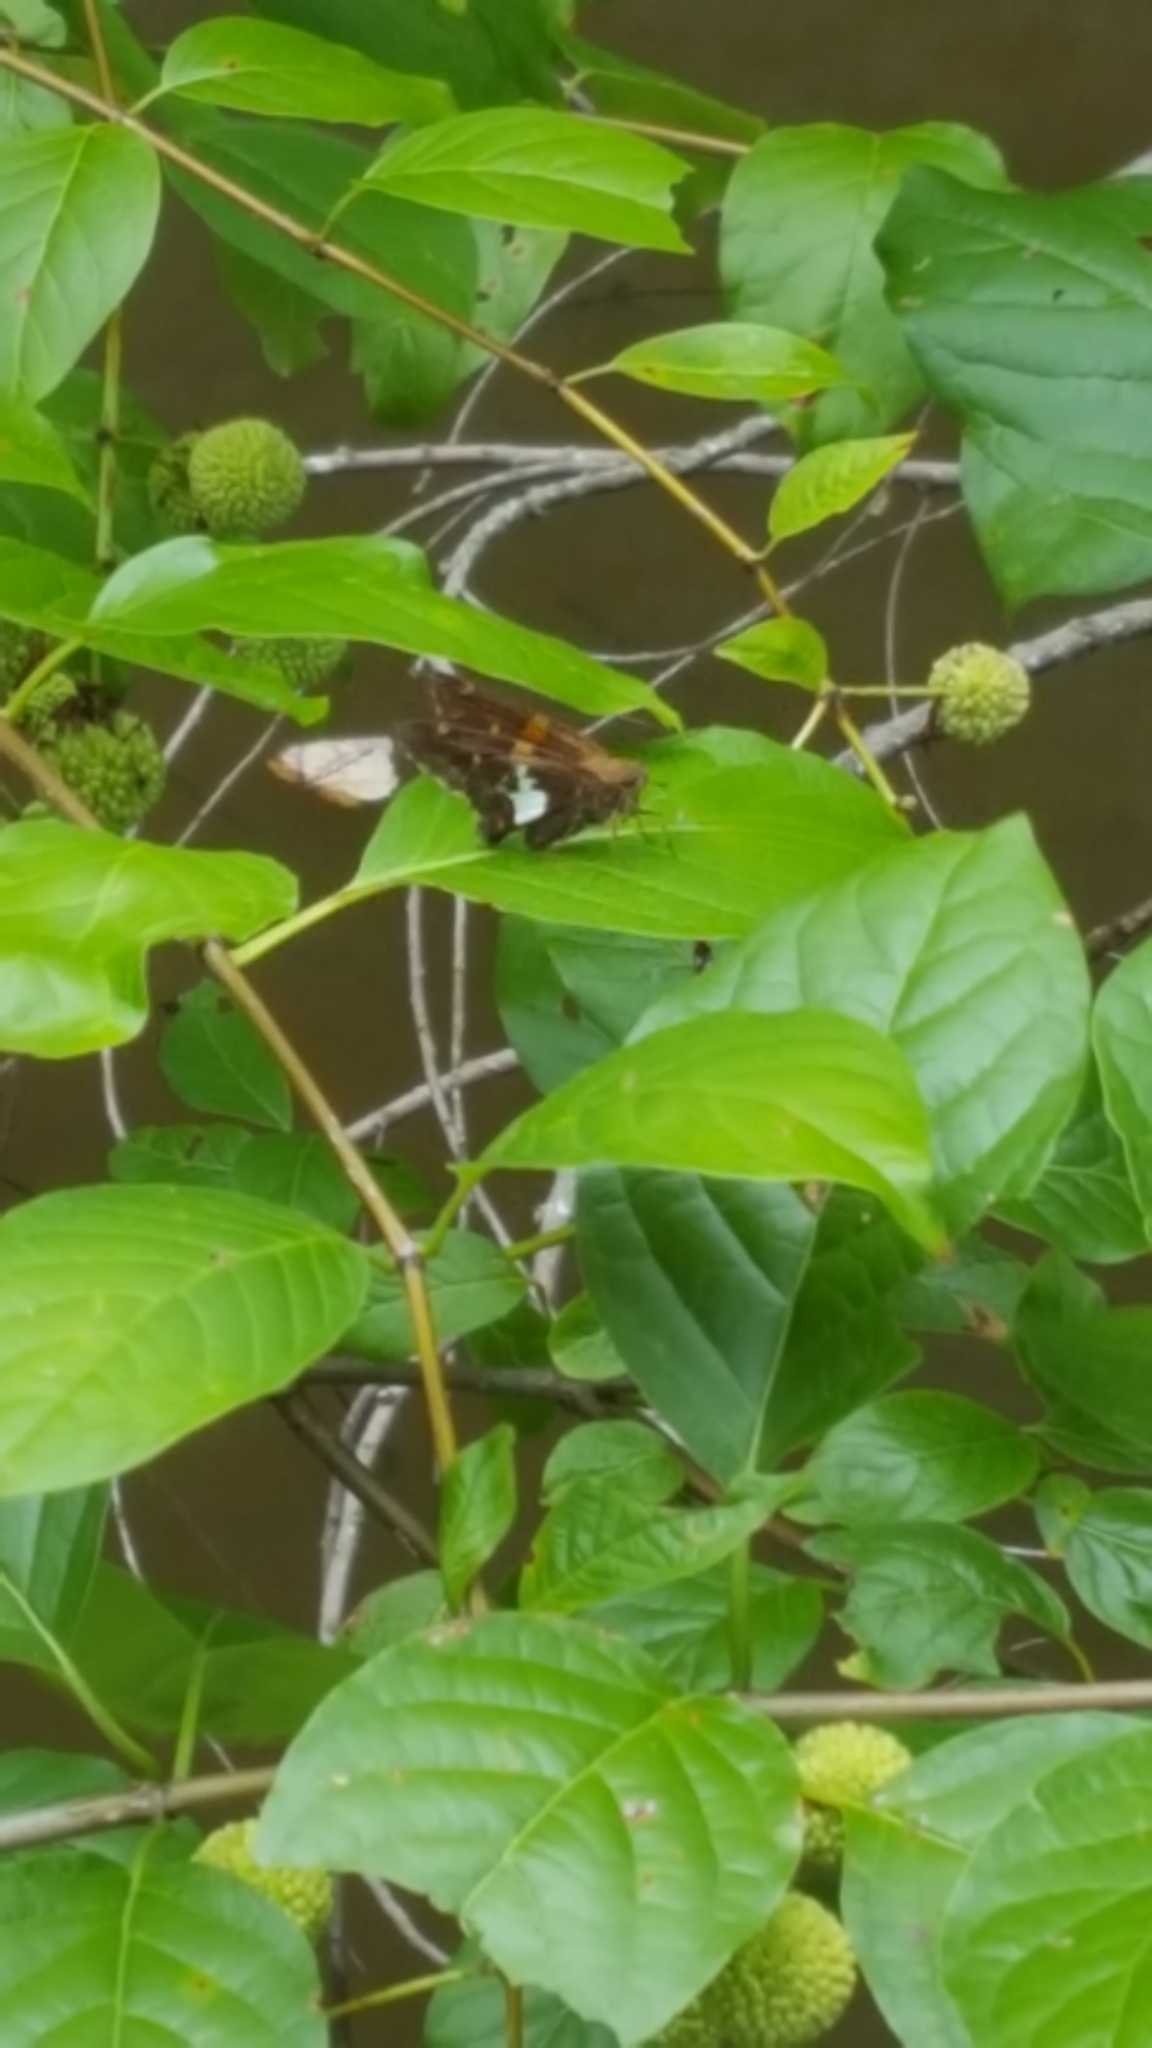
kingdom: Animalia
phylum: Arthropoda
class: Insecta
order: Lepidoptera
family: Hesperiidae
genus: Epargyreus
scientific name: Epargyreus clarus
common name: Silver-spotted skipper
